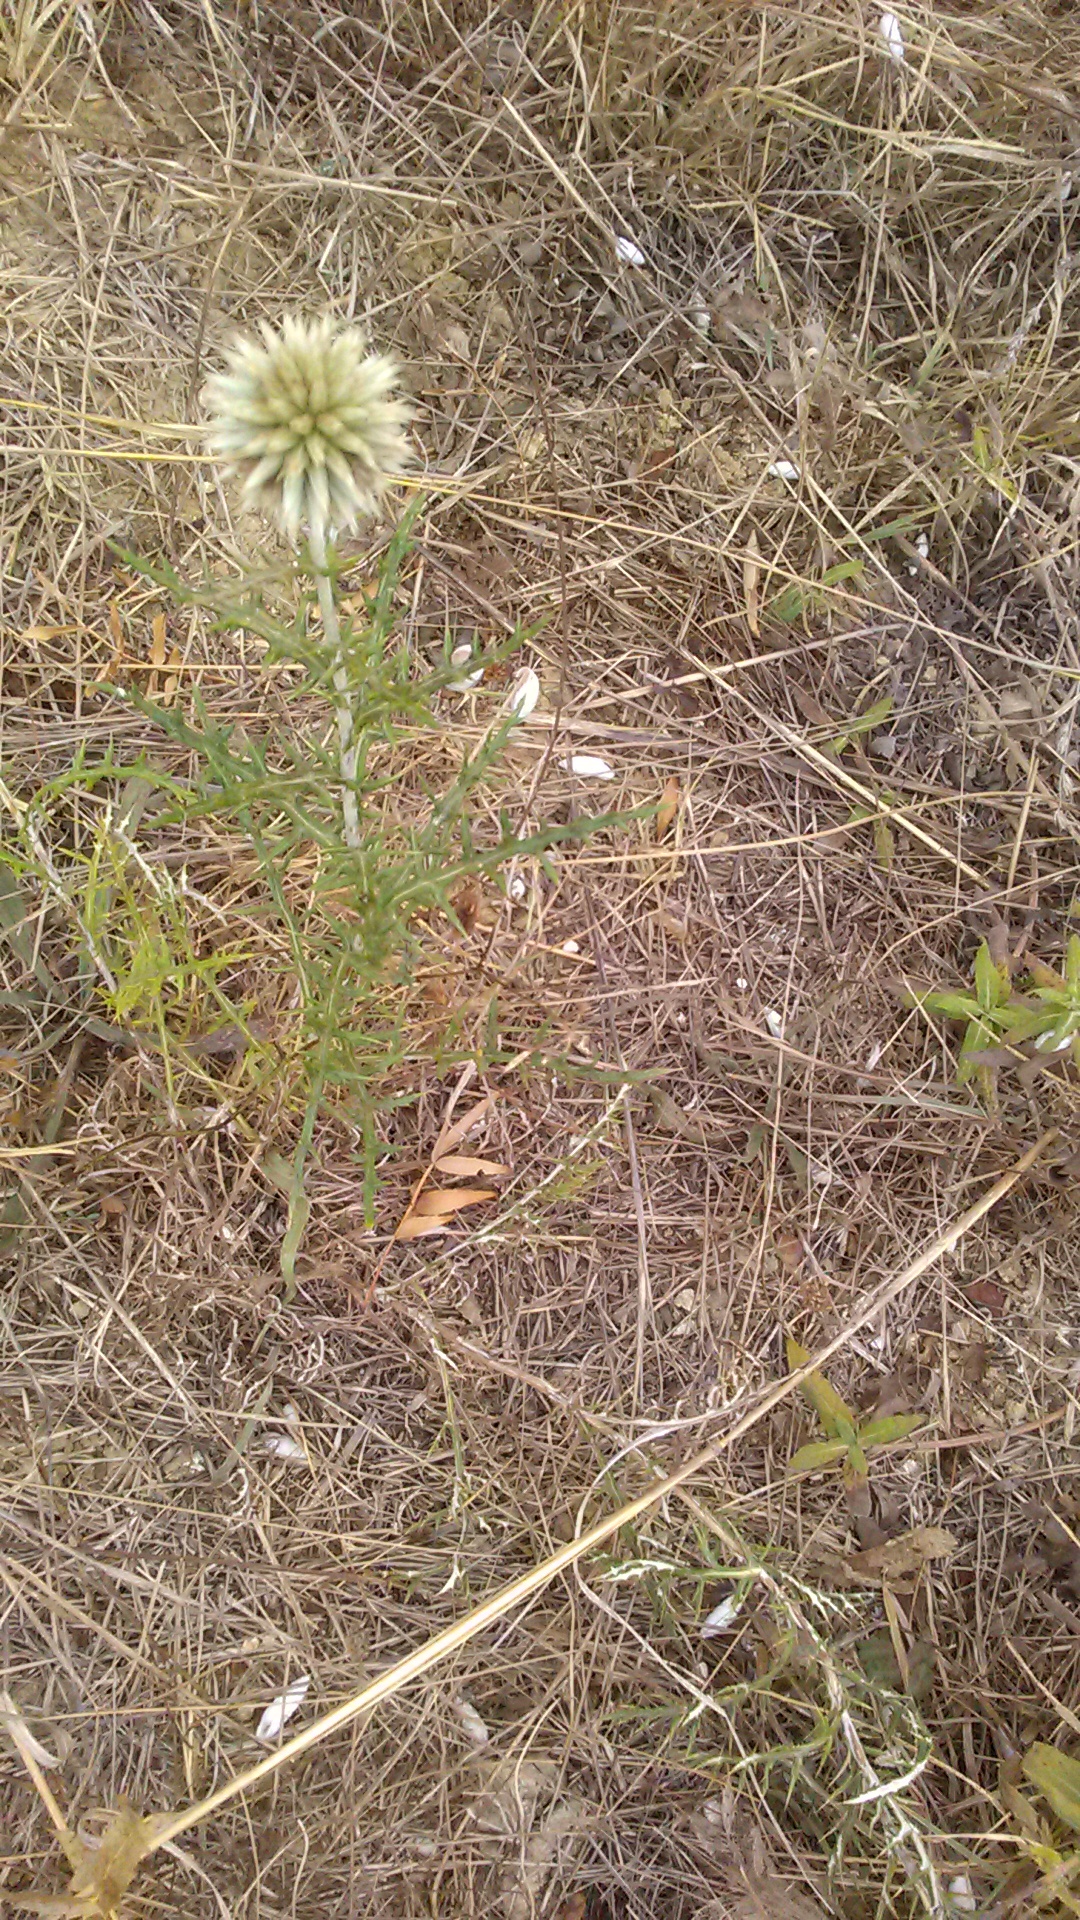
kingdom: Plantae
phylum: Tracheophyta
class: Magnoliopsida
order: Asterales
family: Asteraceae
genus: Echinops
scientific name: Echinops ritro
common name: Globe thistle
